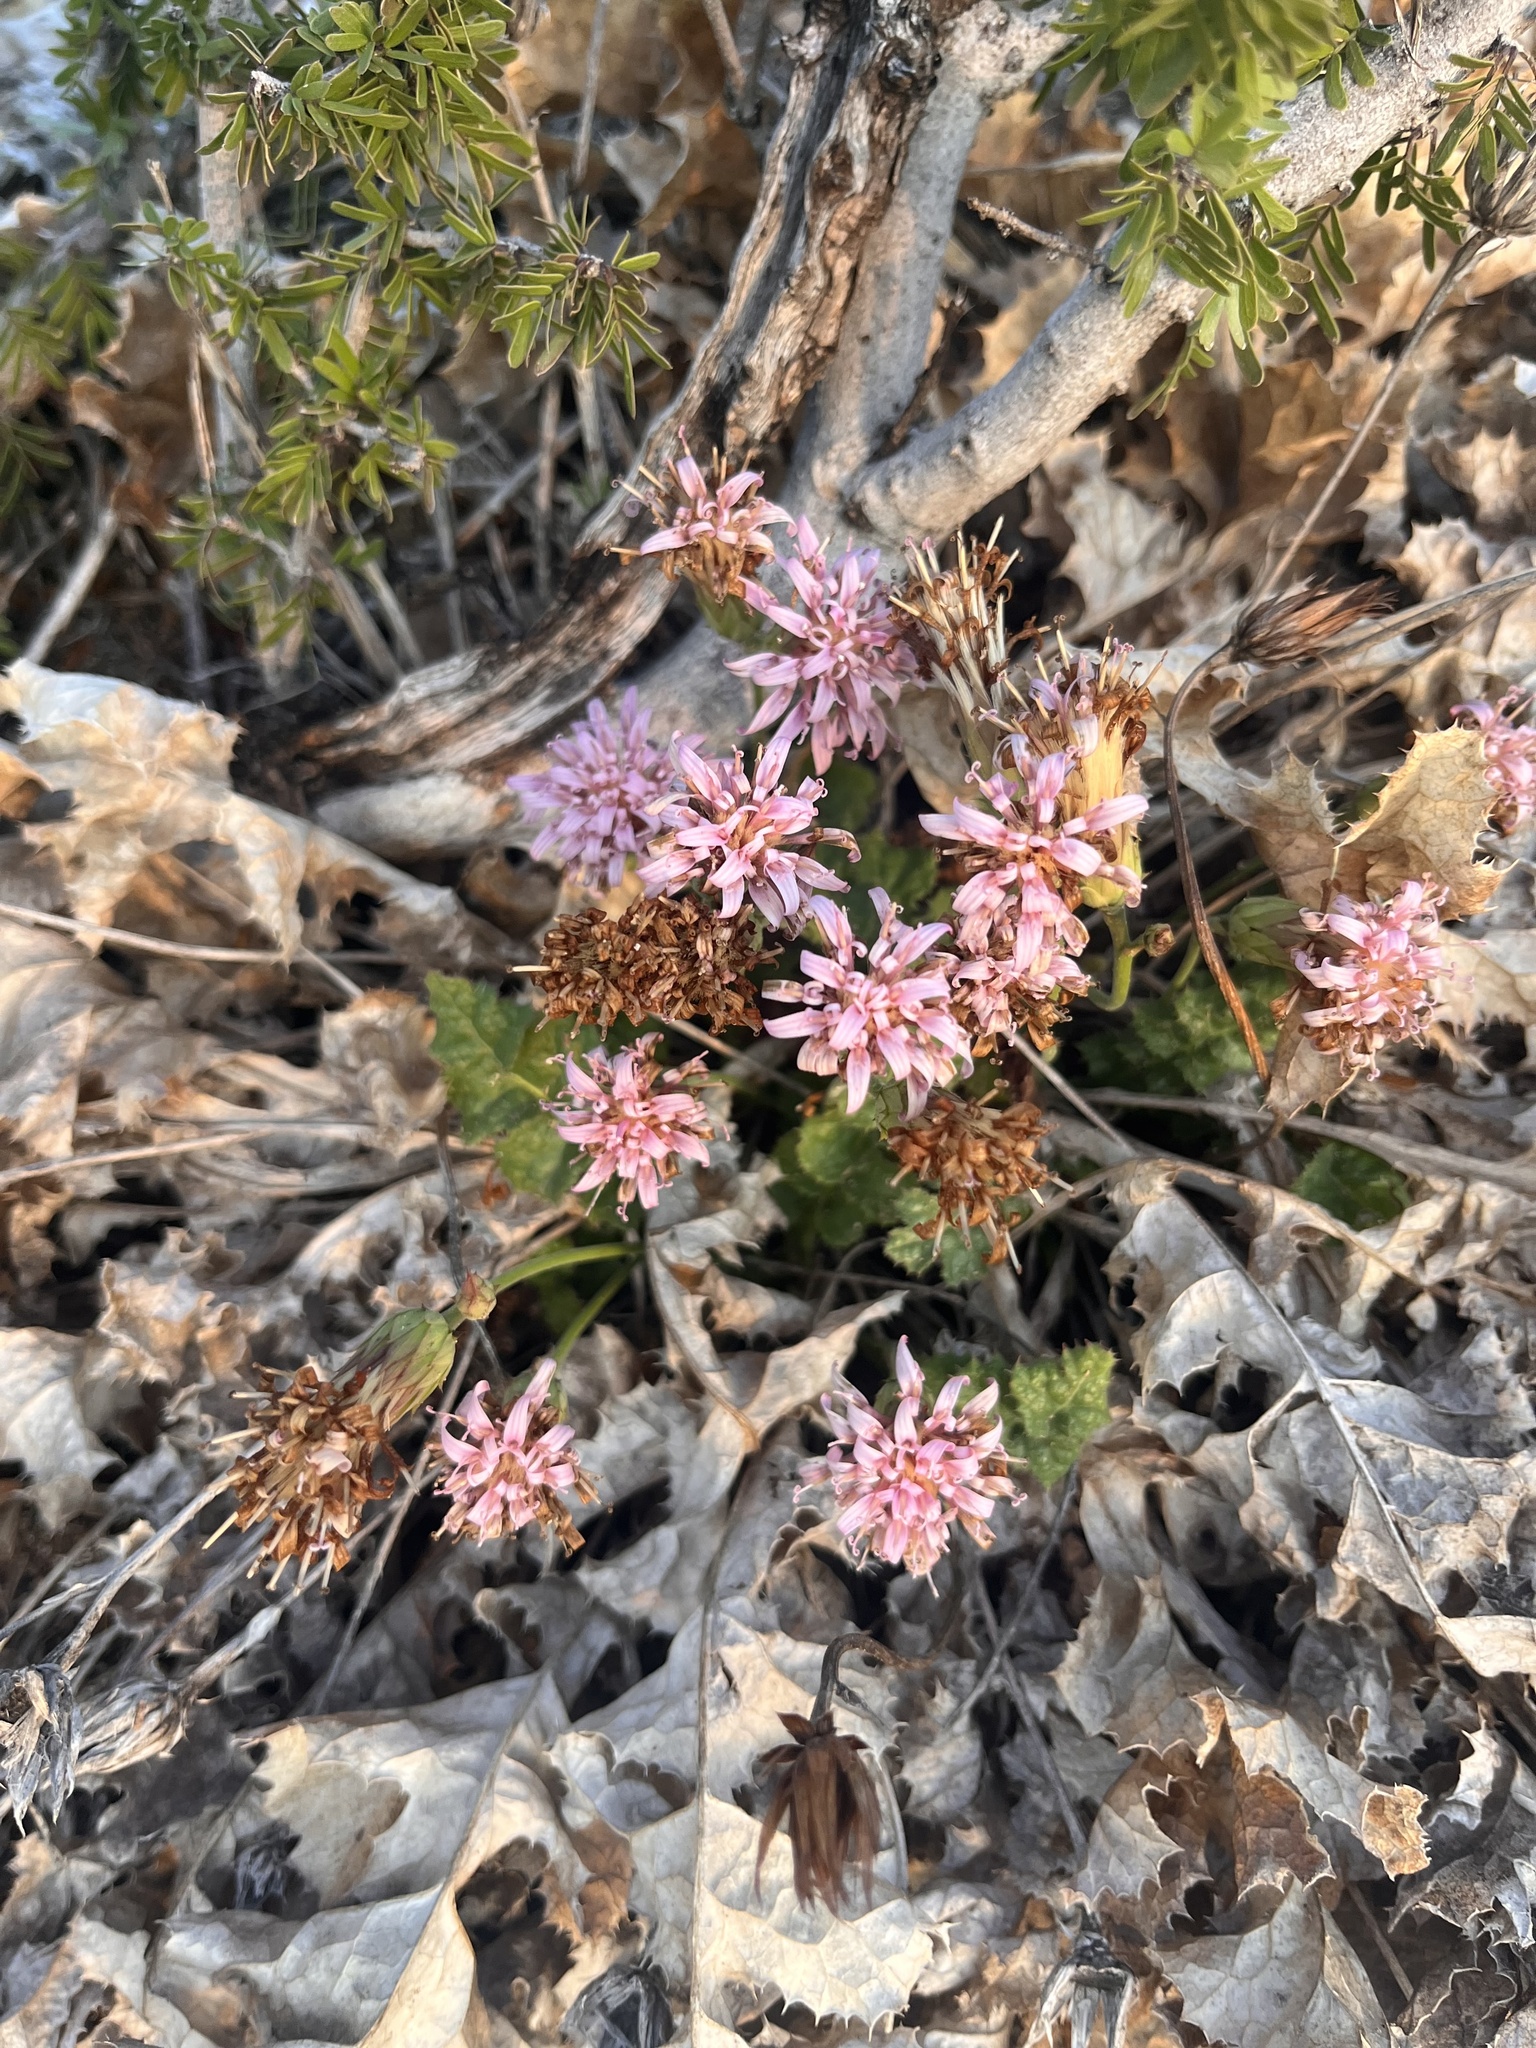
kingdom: Plantae
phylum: Tracheophyta
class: Magnoliopsida
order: Asterales
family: Asteraceae
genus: Acourtia
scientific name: Acourtia runcinata
